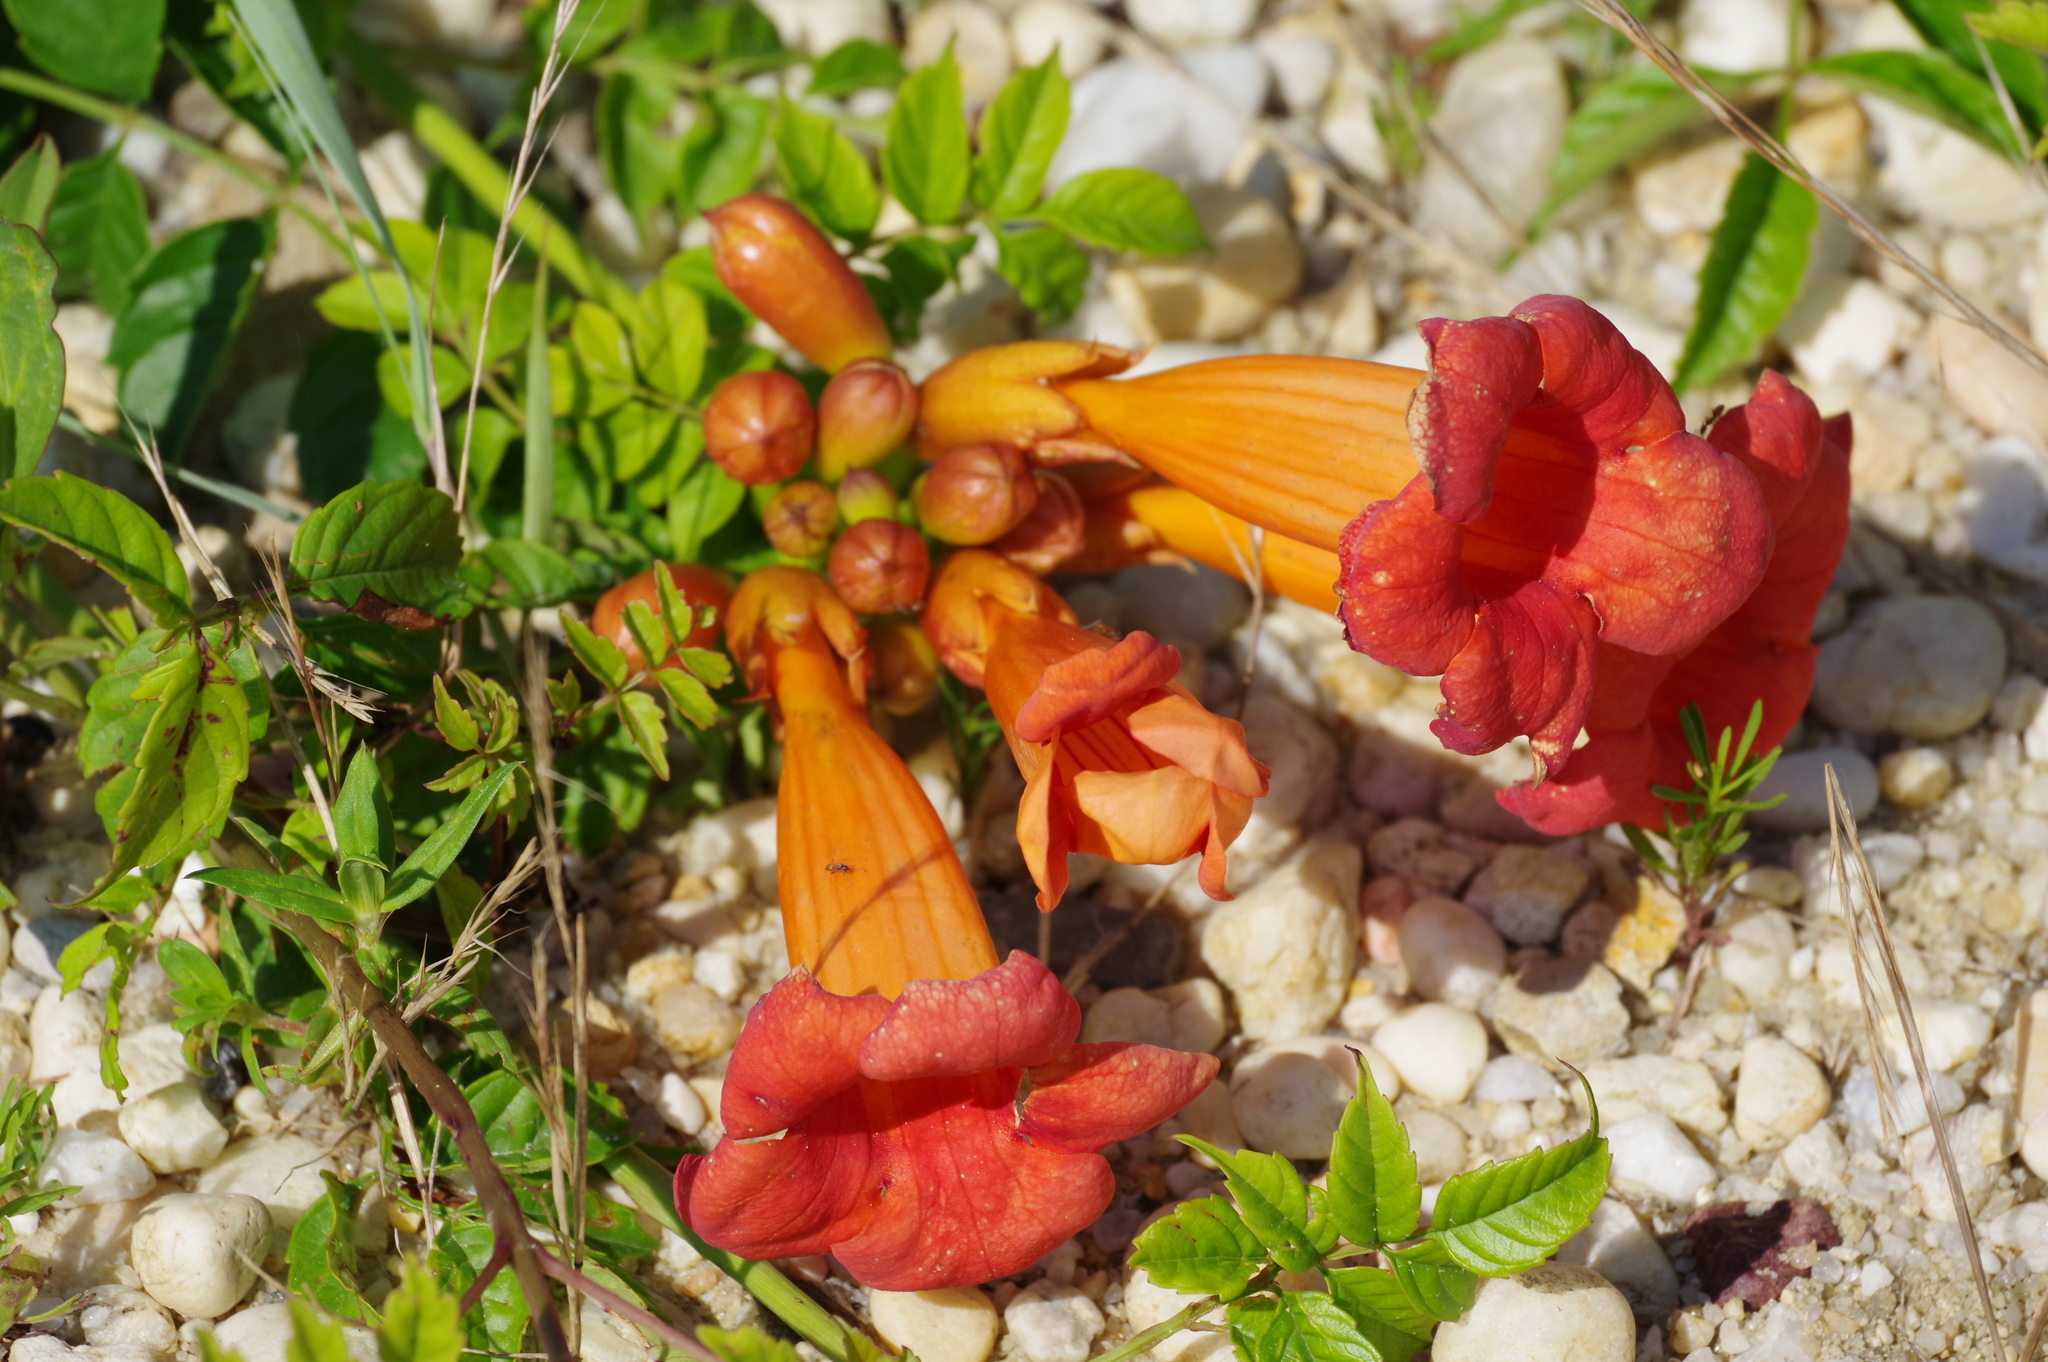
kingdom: Plantae
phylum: Tracheophyta
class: Magnoliopsida
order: Lamiales
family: Bignoniaceae
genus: Campsis
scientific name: Campsis radicans
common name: Trumpet-creeper
